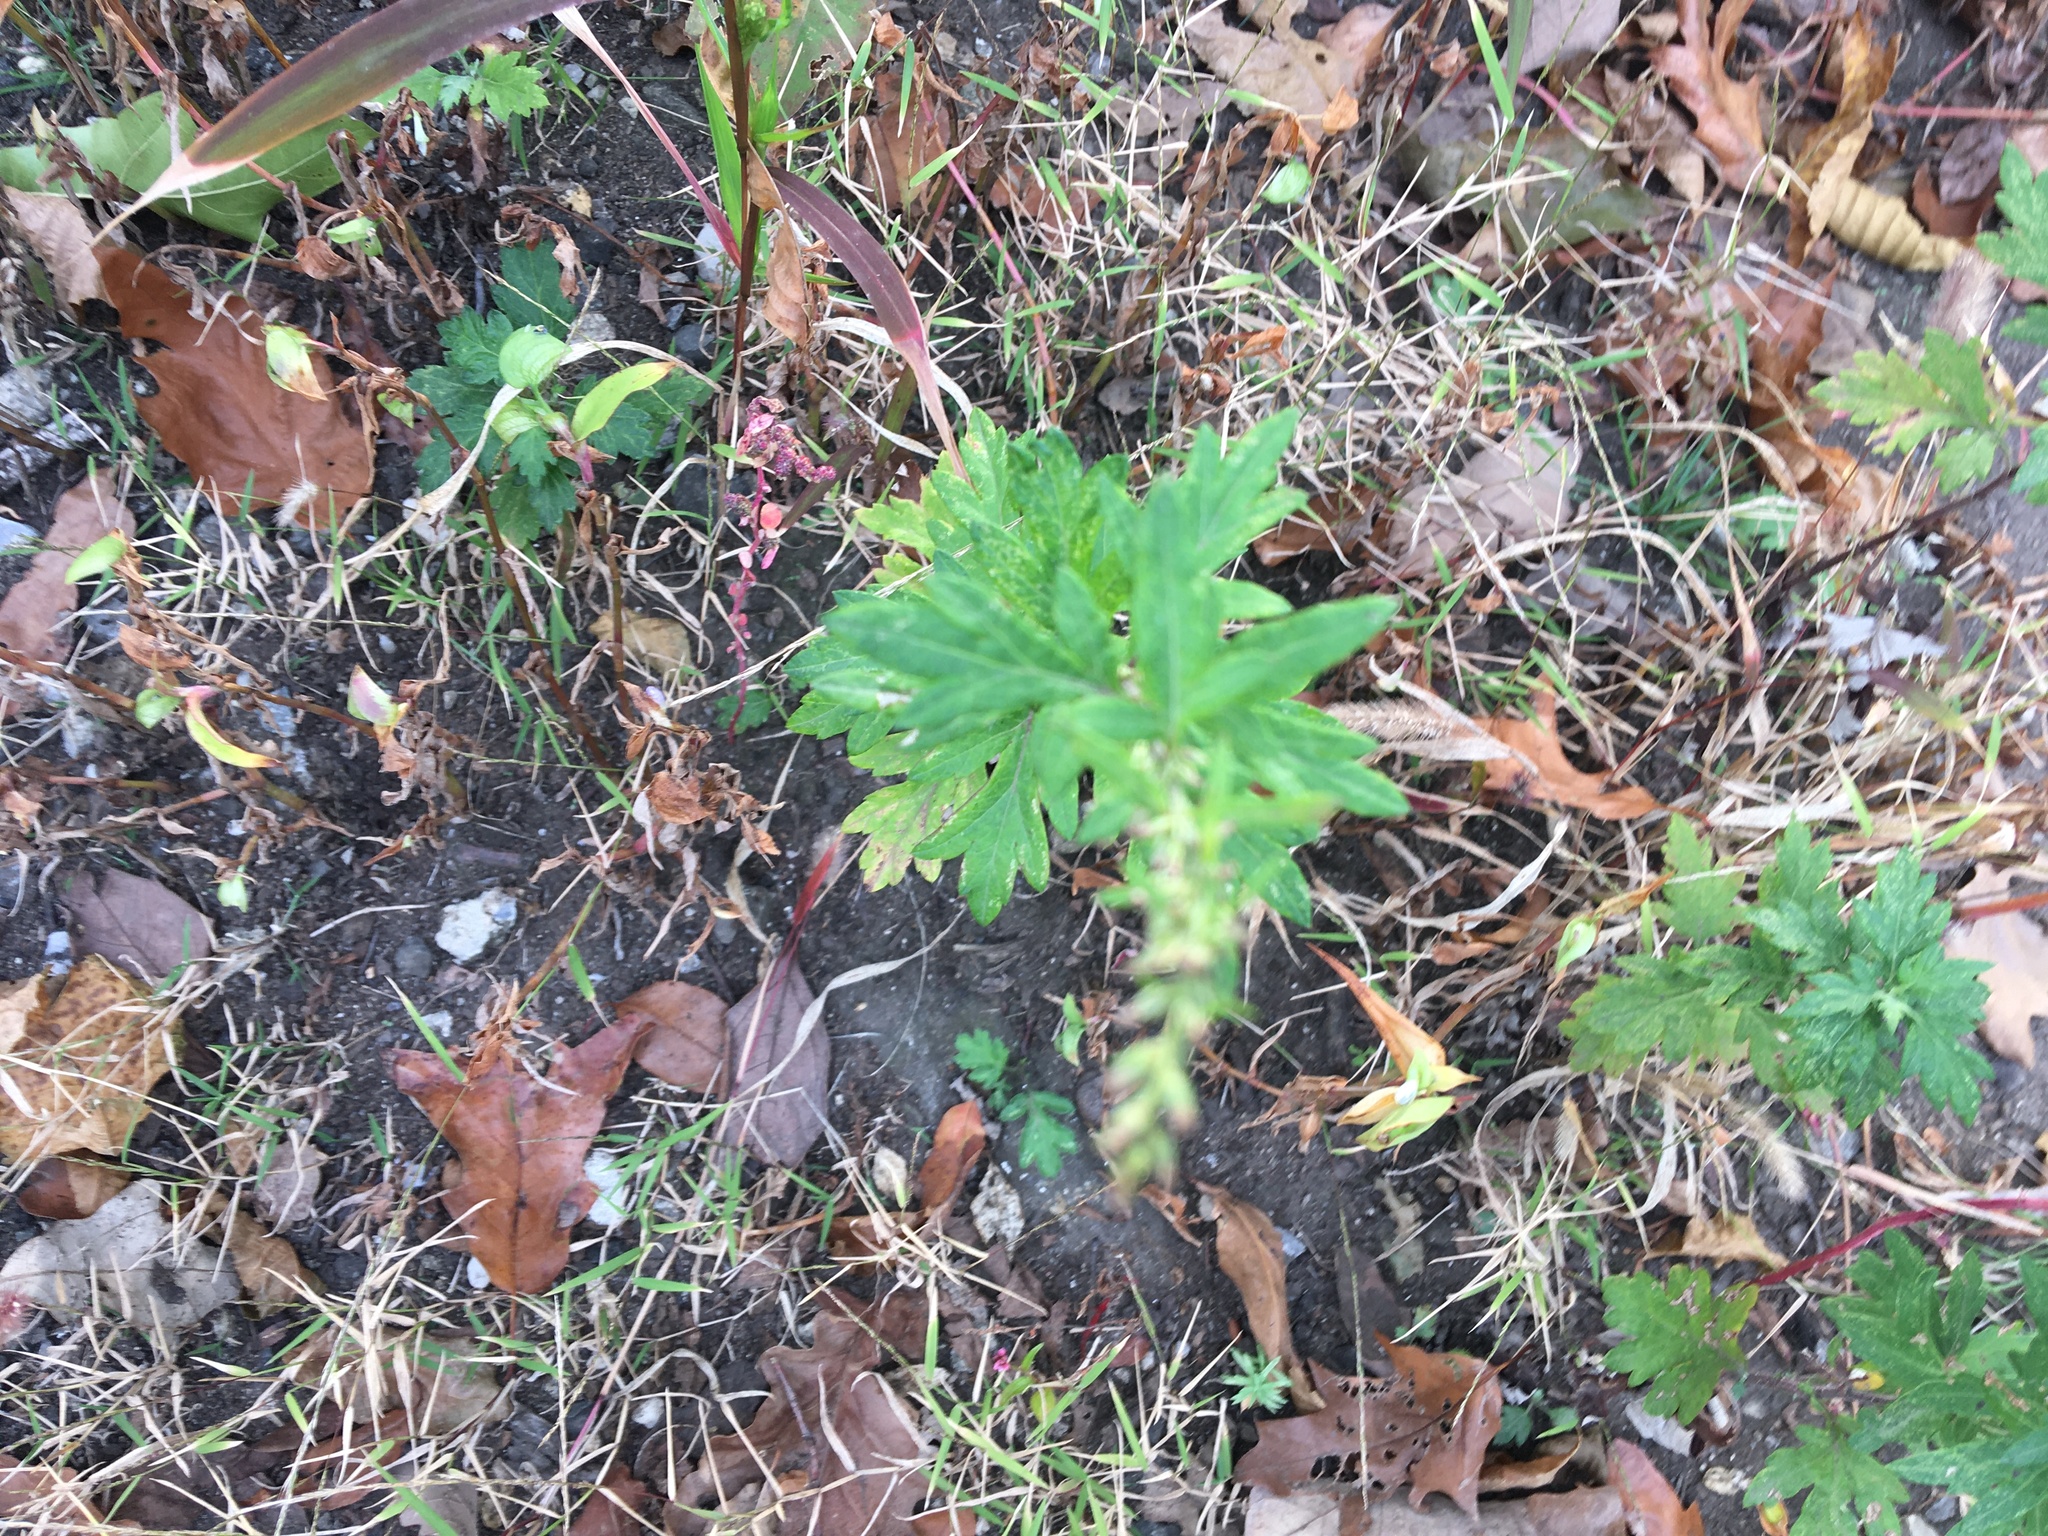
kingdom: Plantae
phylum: Tracheophyta
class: Magnoliopsida
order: Asterales
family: Asteraceae
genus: Artemisia
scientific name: Artemisia vulgaris
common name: Mugwort
